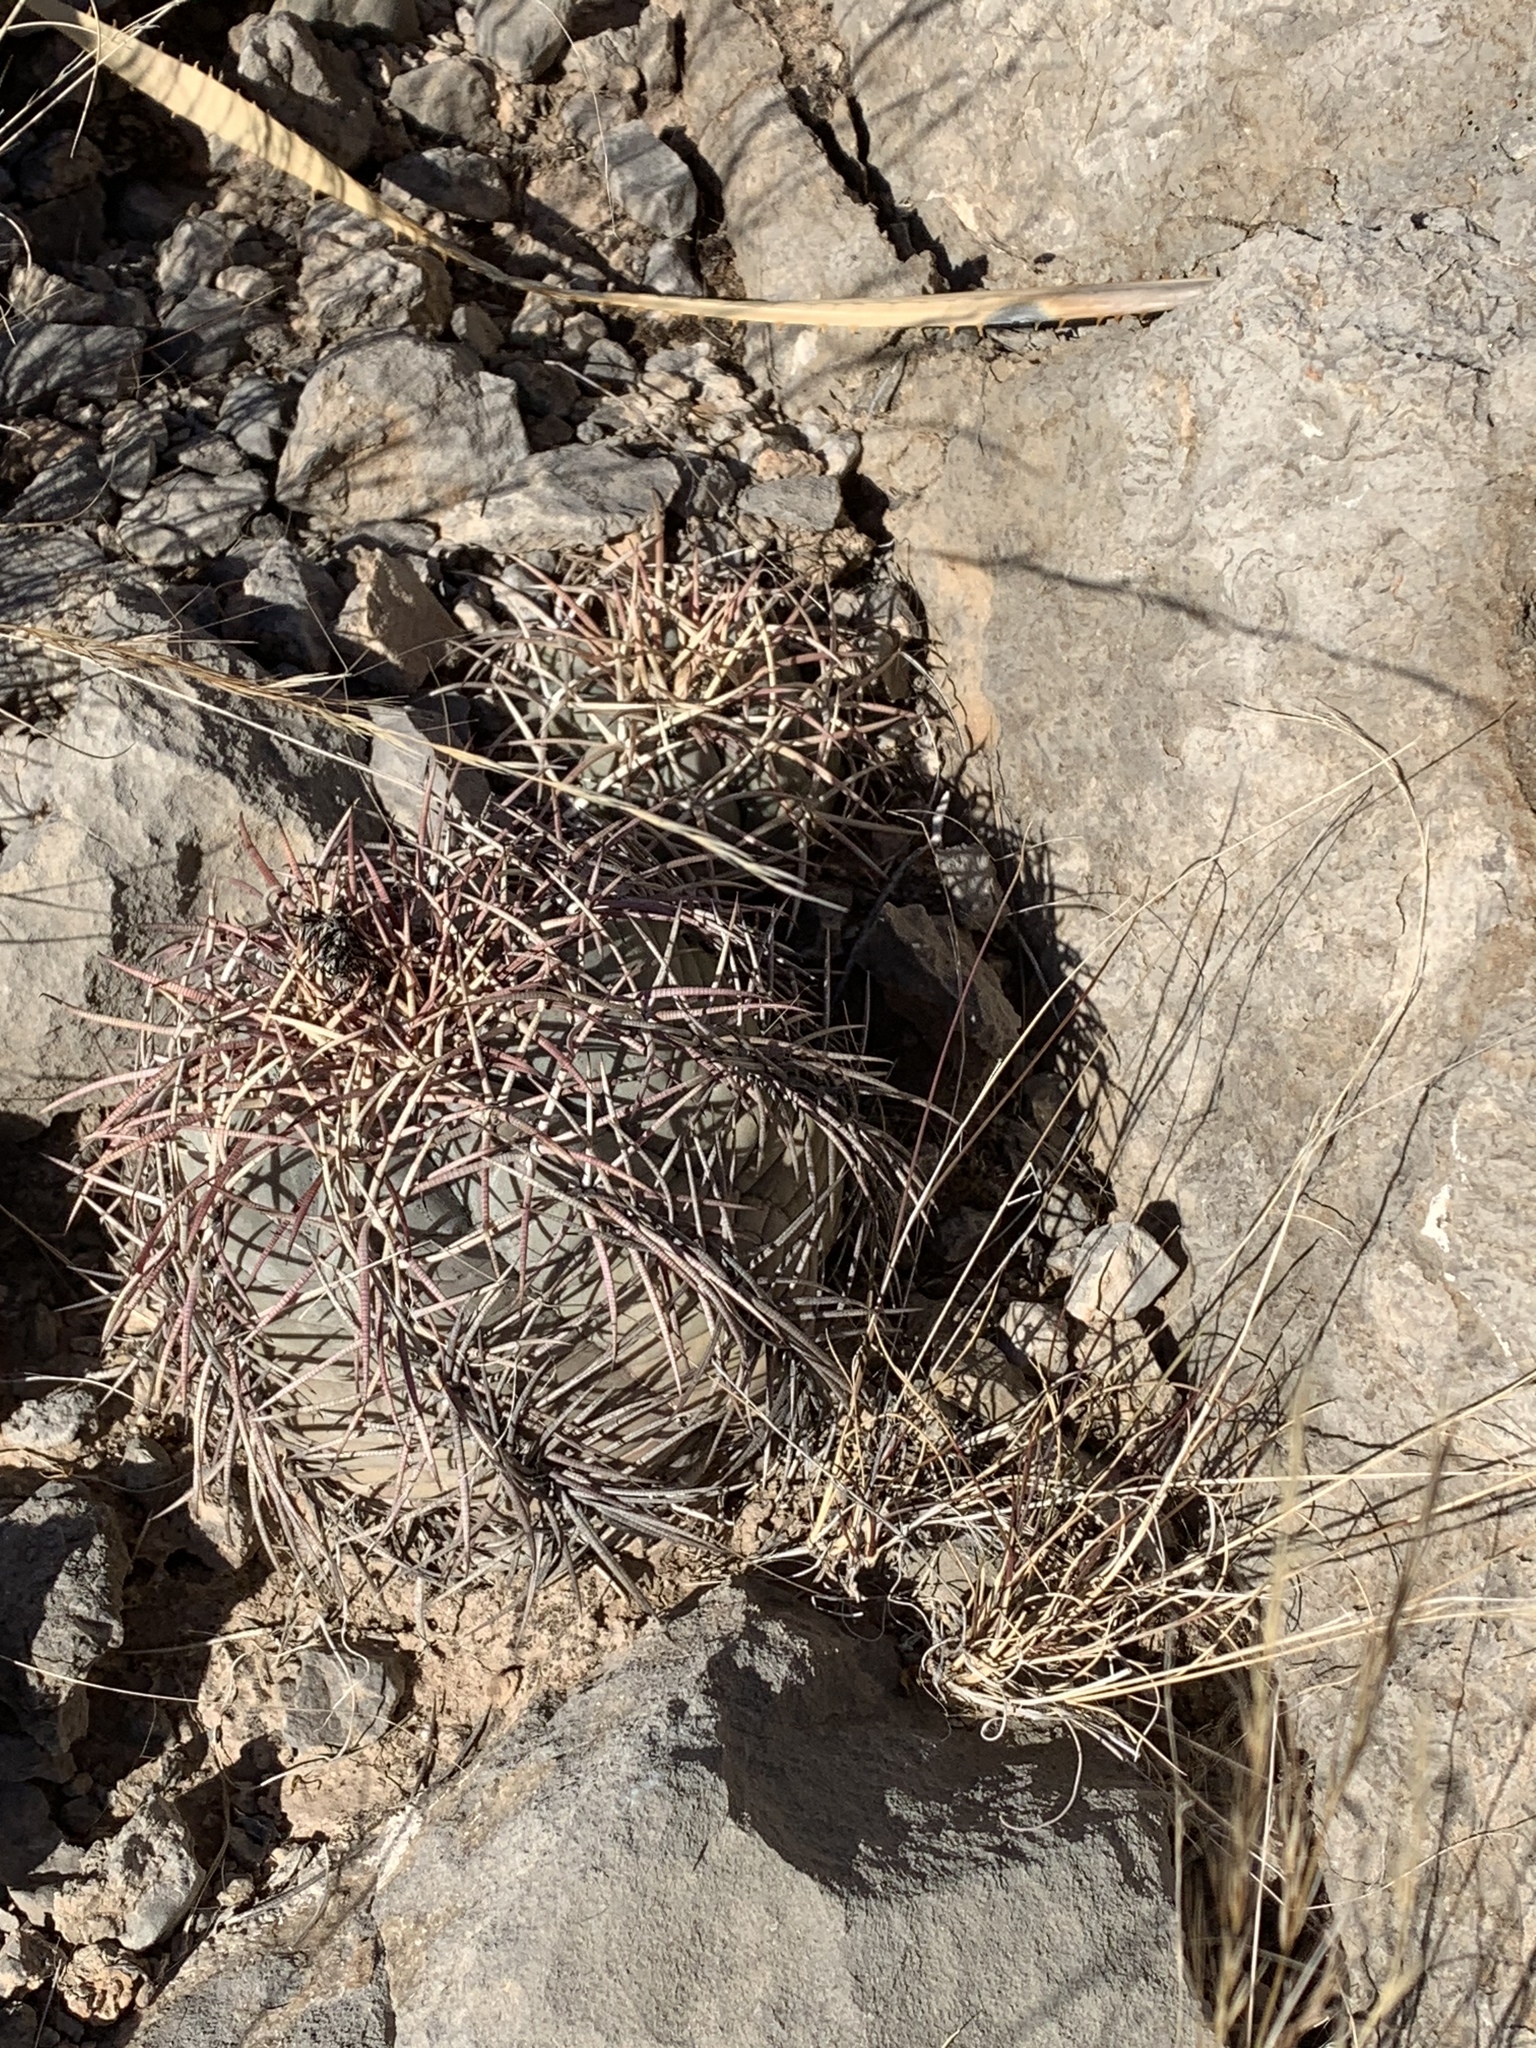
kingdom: Plantae
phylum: Tracheophyta
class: Magnoliopsida
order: Caryophyllales
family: Cactaceae
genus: Echinocactus
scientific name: Echinocactus horizonthalonius
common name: Devilshead
